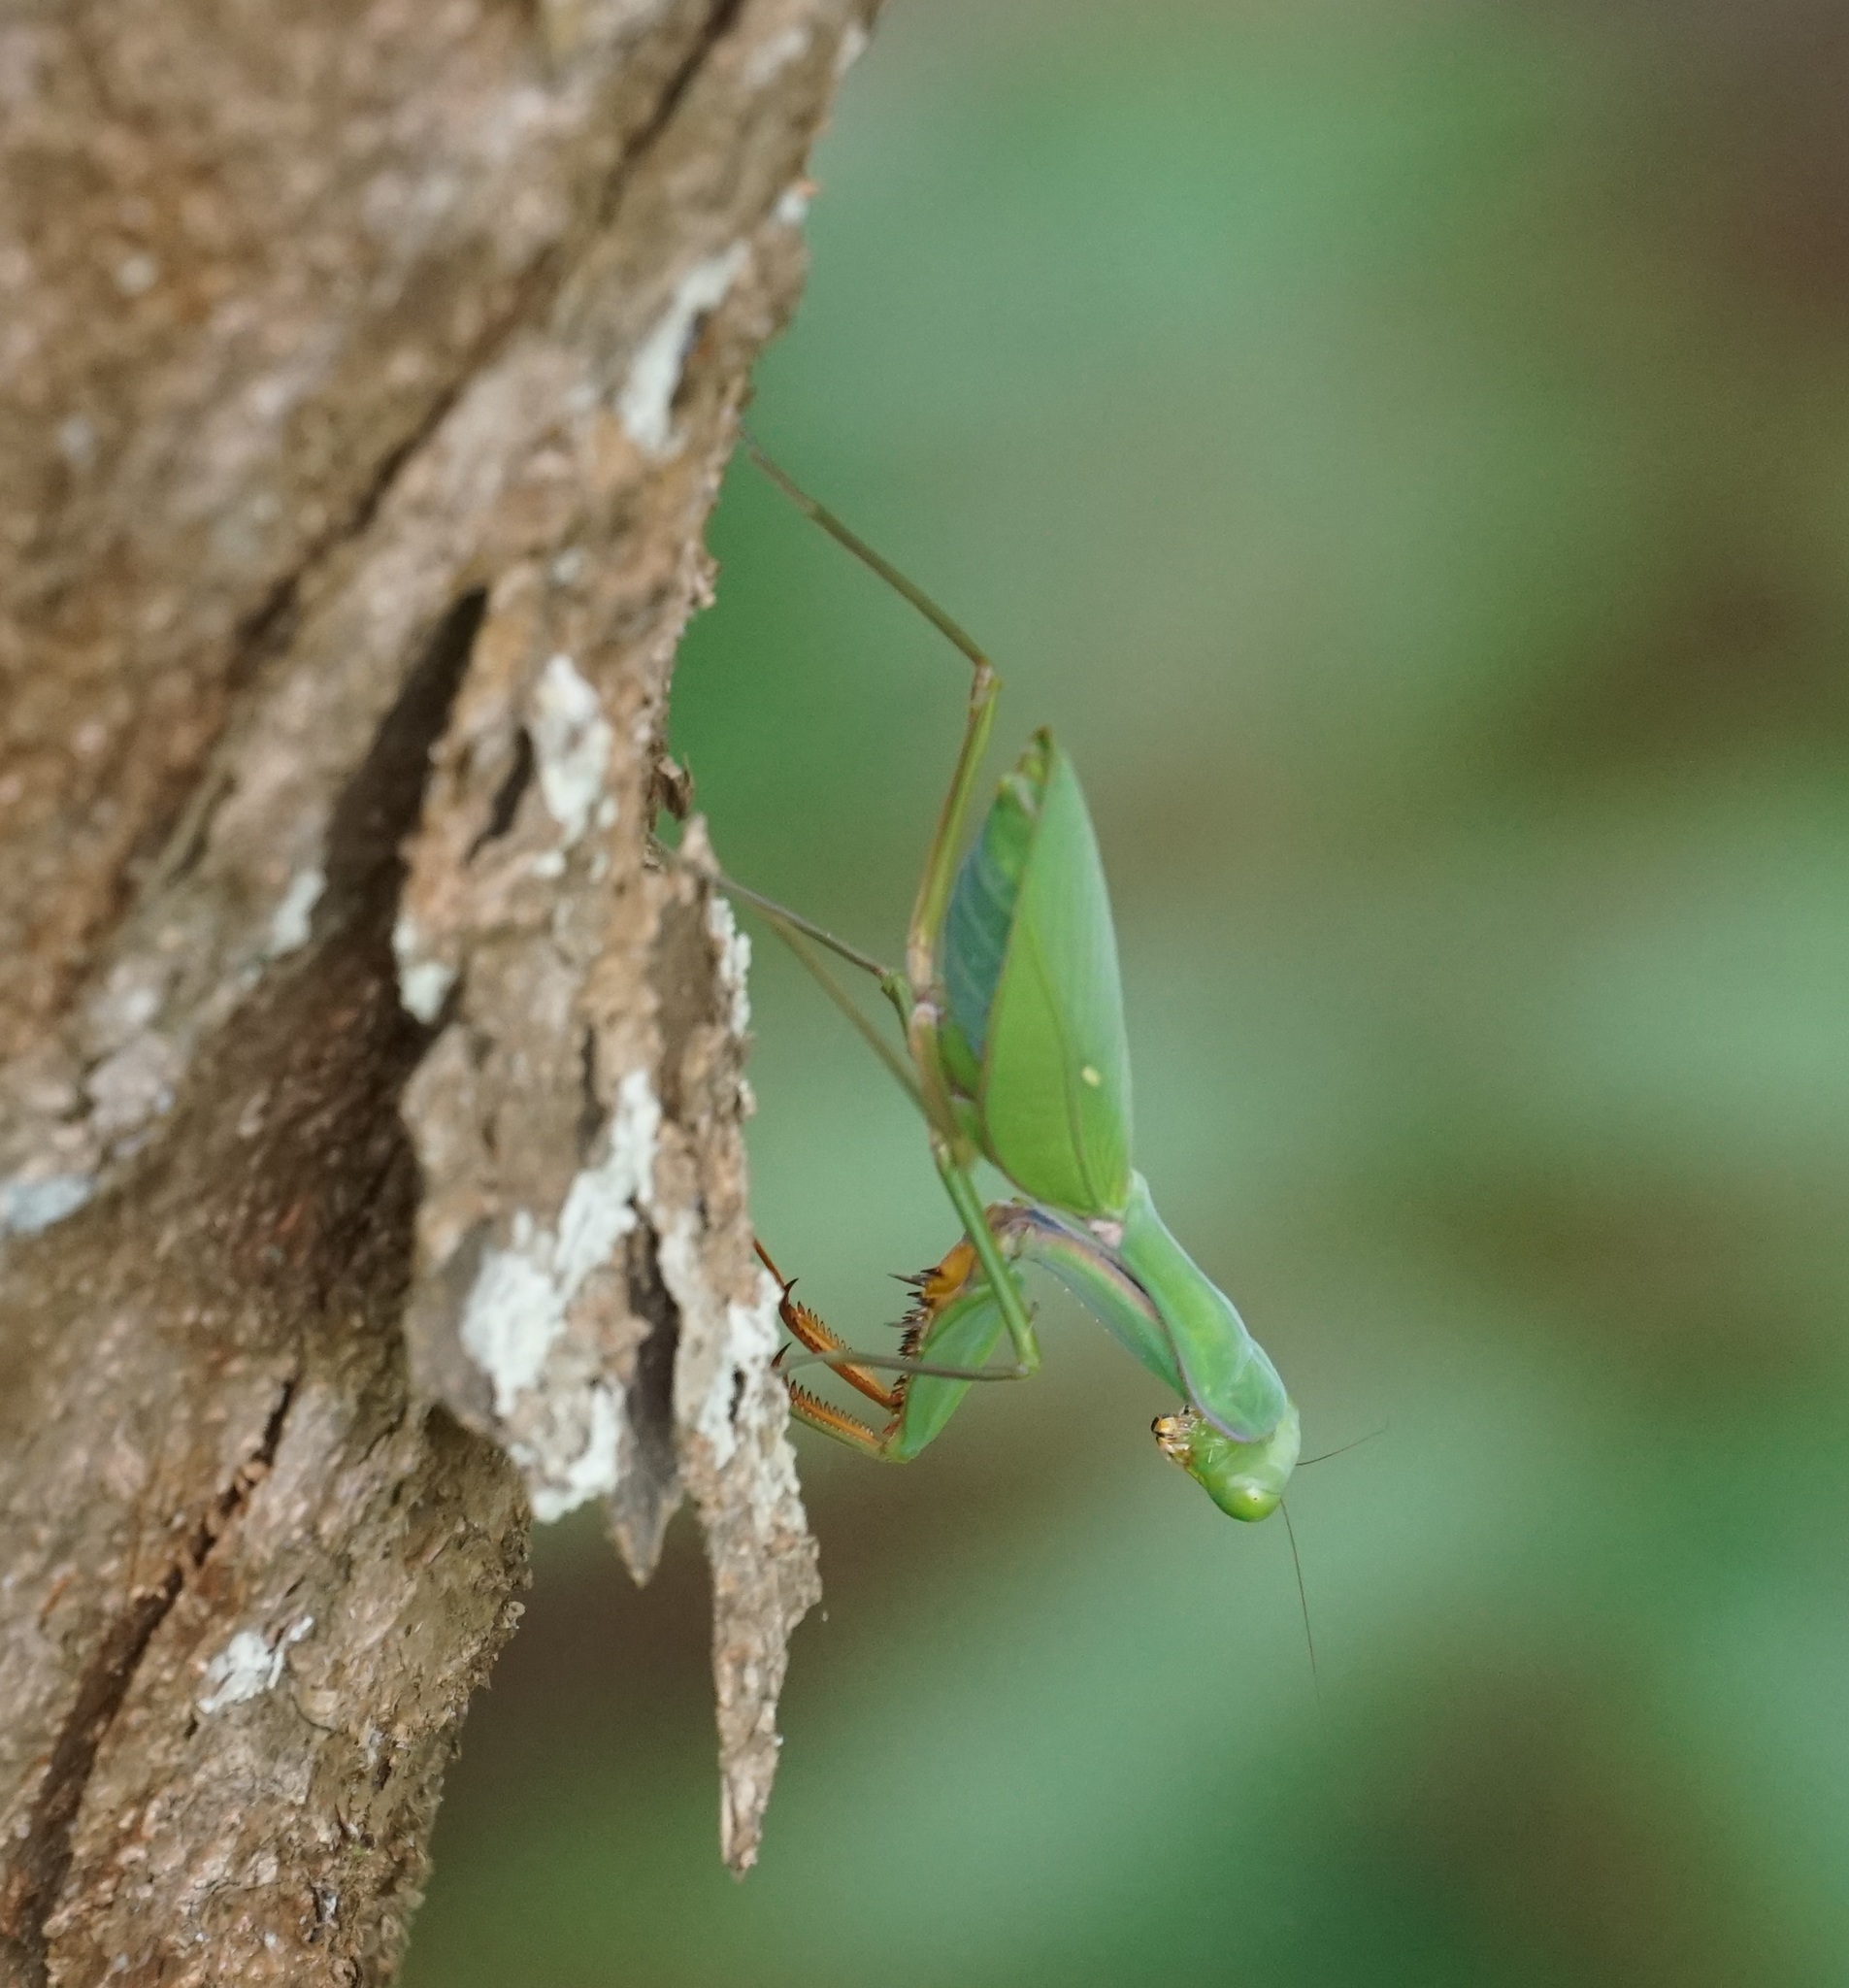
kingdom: Animalia
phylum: Arthropoda
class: Insecta
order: Mantodea
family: Mantidae
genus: Hierodula
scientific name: Hierodula majuscula
